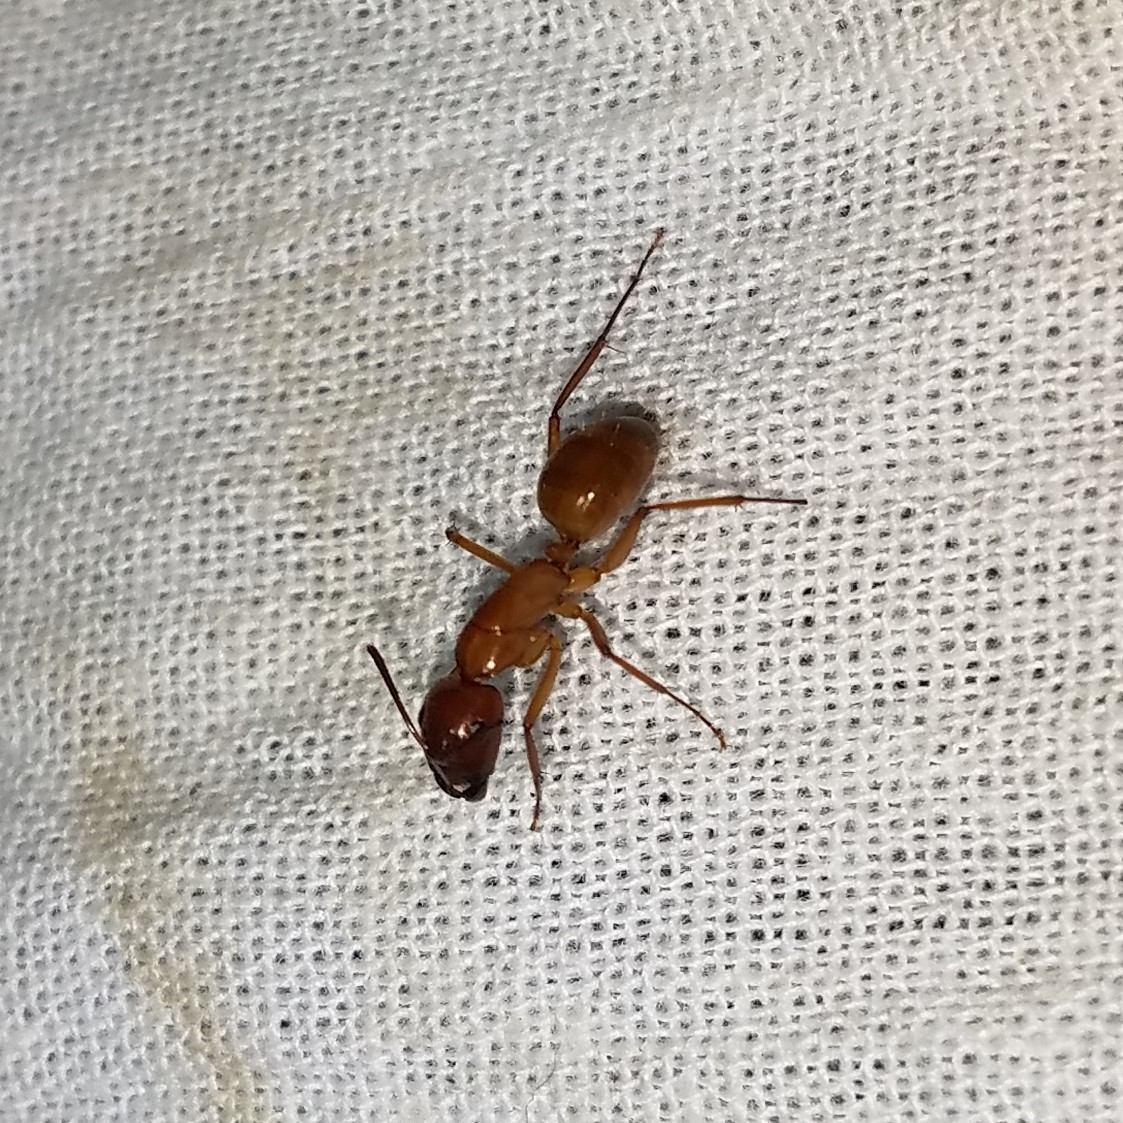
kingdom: Animalia
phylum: Arthropoda
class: Insecta
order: Hymenoptera
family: Formicidae
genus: Camponotus
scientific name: Camponotus castaneus
